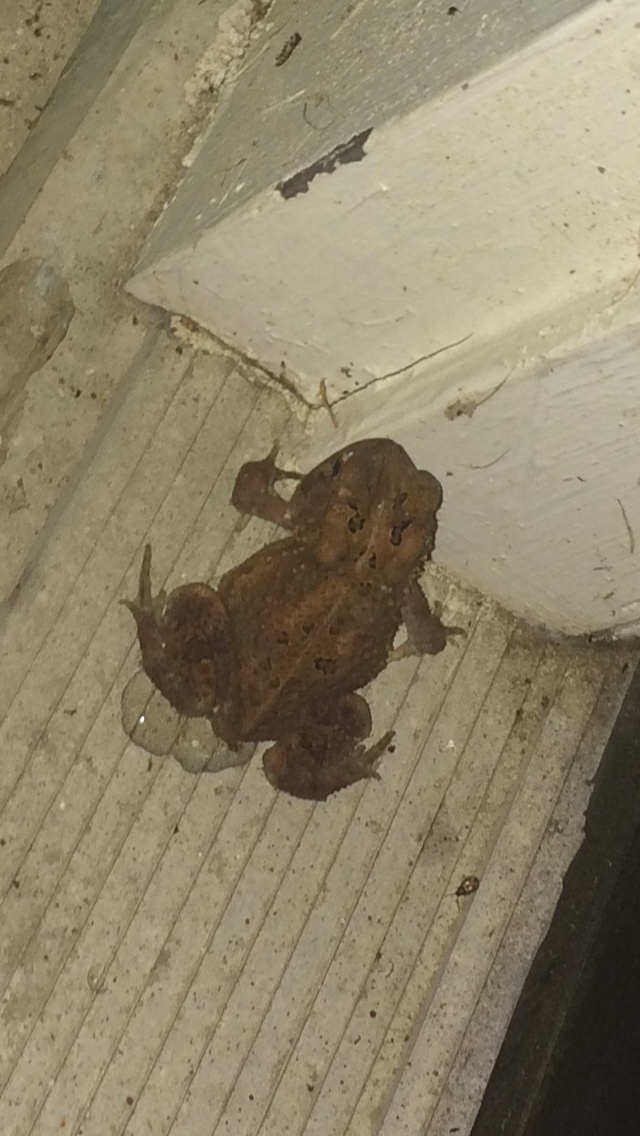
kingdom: Animalia
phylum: Chordata
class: Amphibia
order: Anura
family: Bufonidae
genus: Anaxyrus
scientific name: Anaxyrus americanus
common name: American toad
